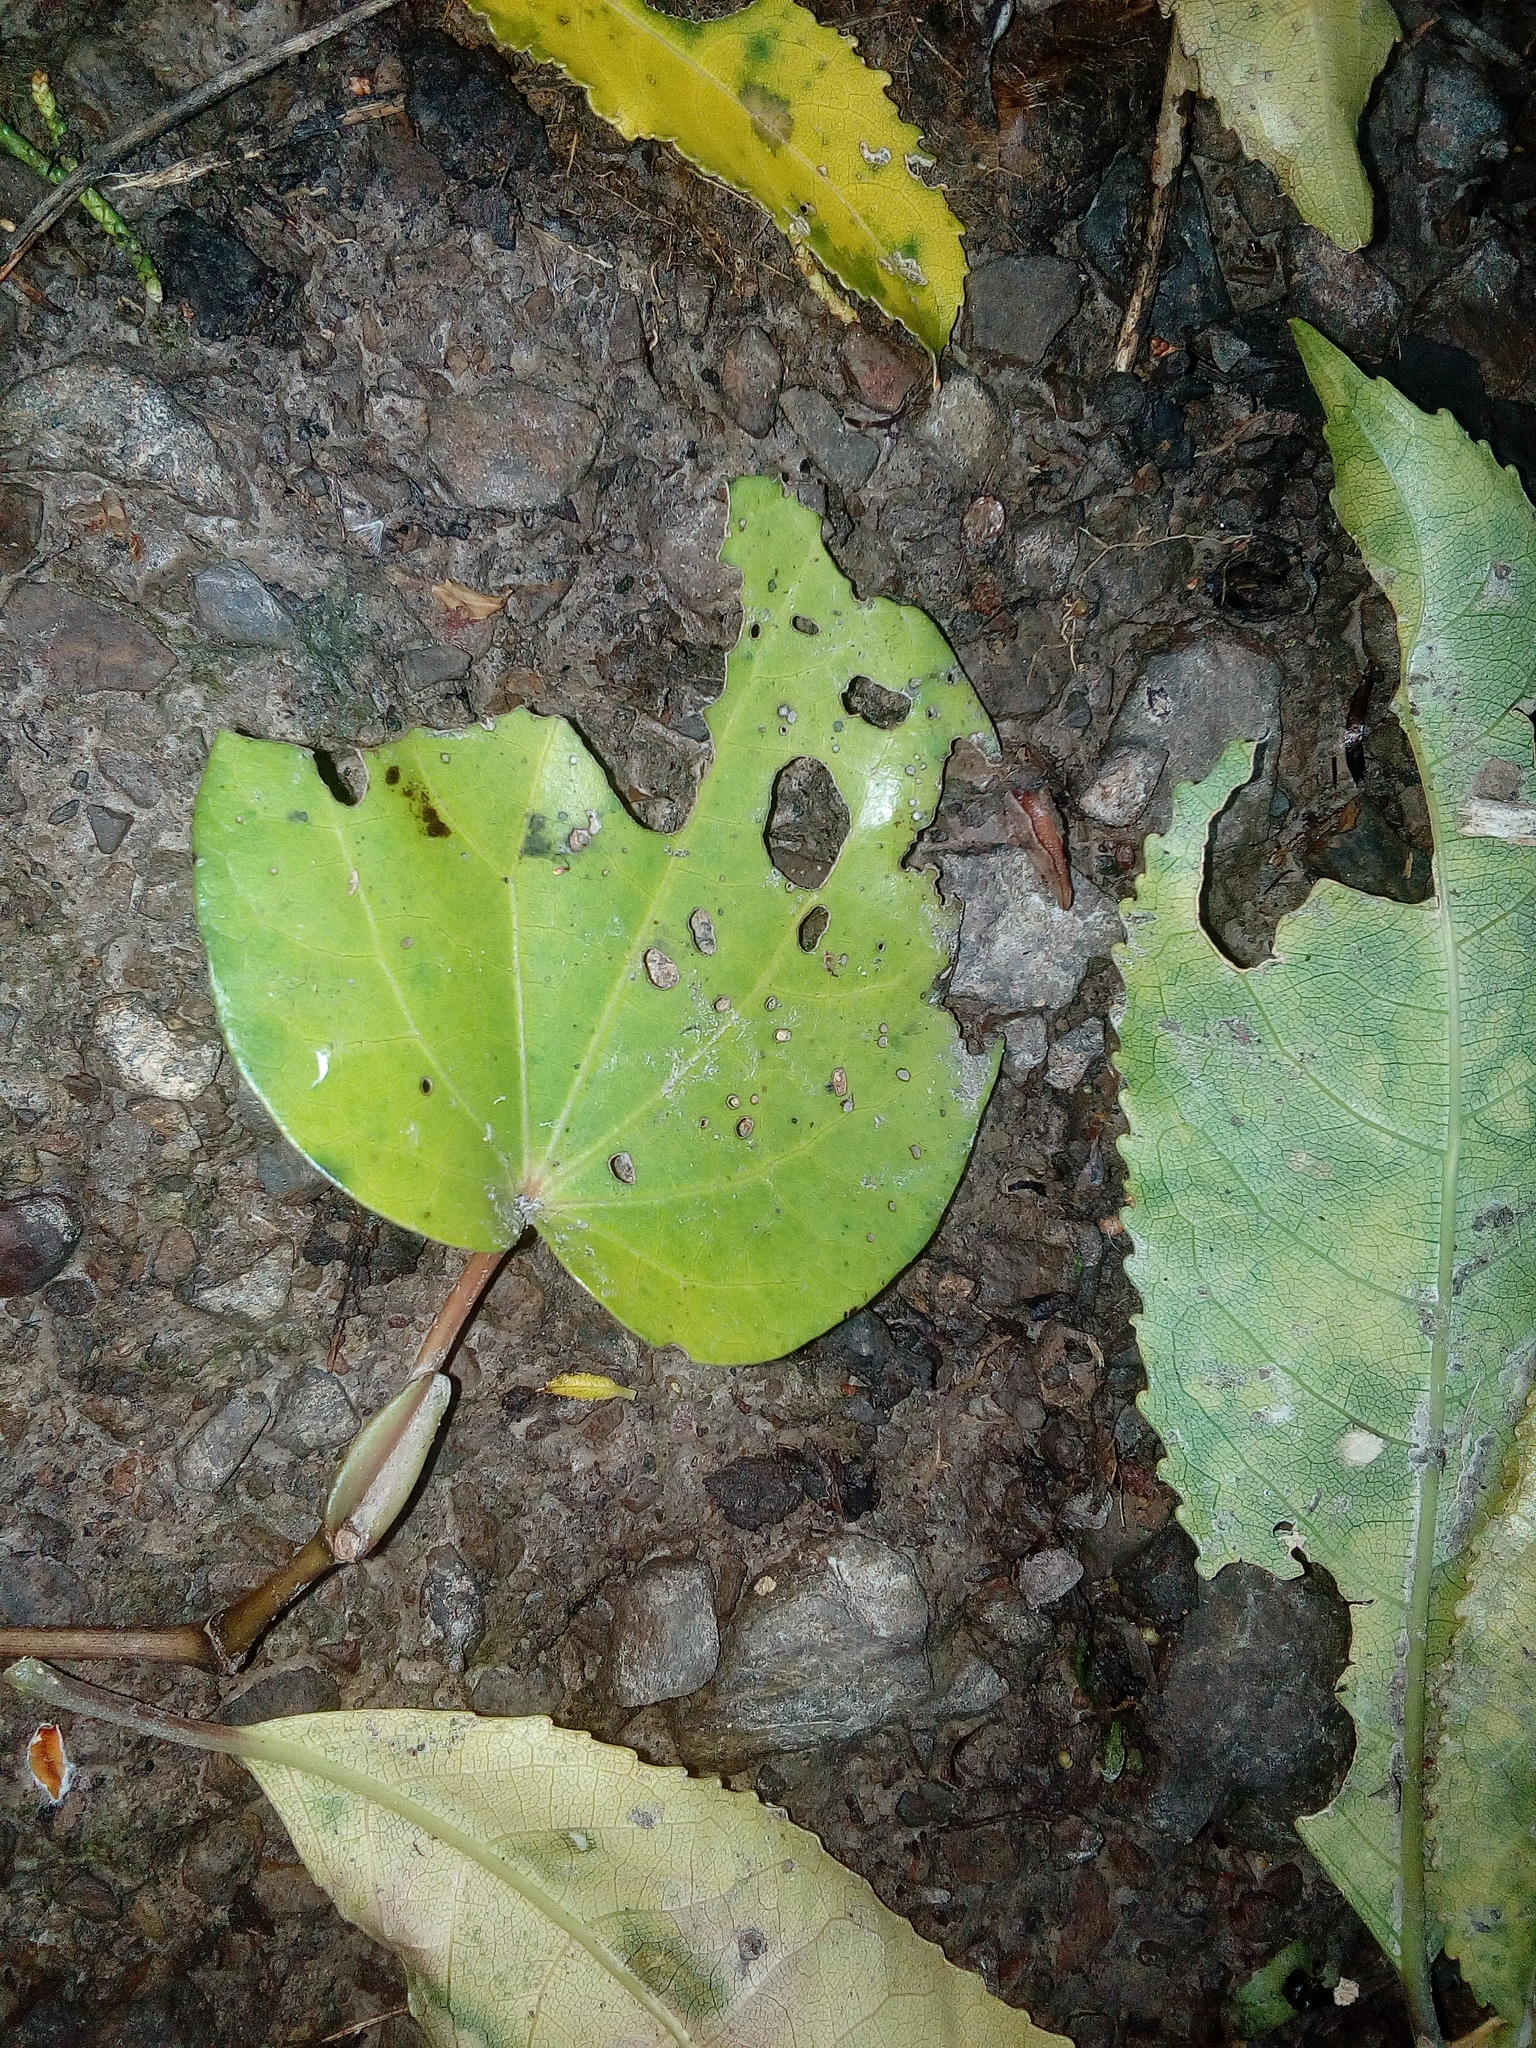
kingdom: Plantae
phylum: Tracheophyta
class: Magnoliopsida
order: Piperales
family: Piperaceae
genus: Macropiper
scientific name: Macropiper excelsum
